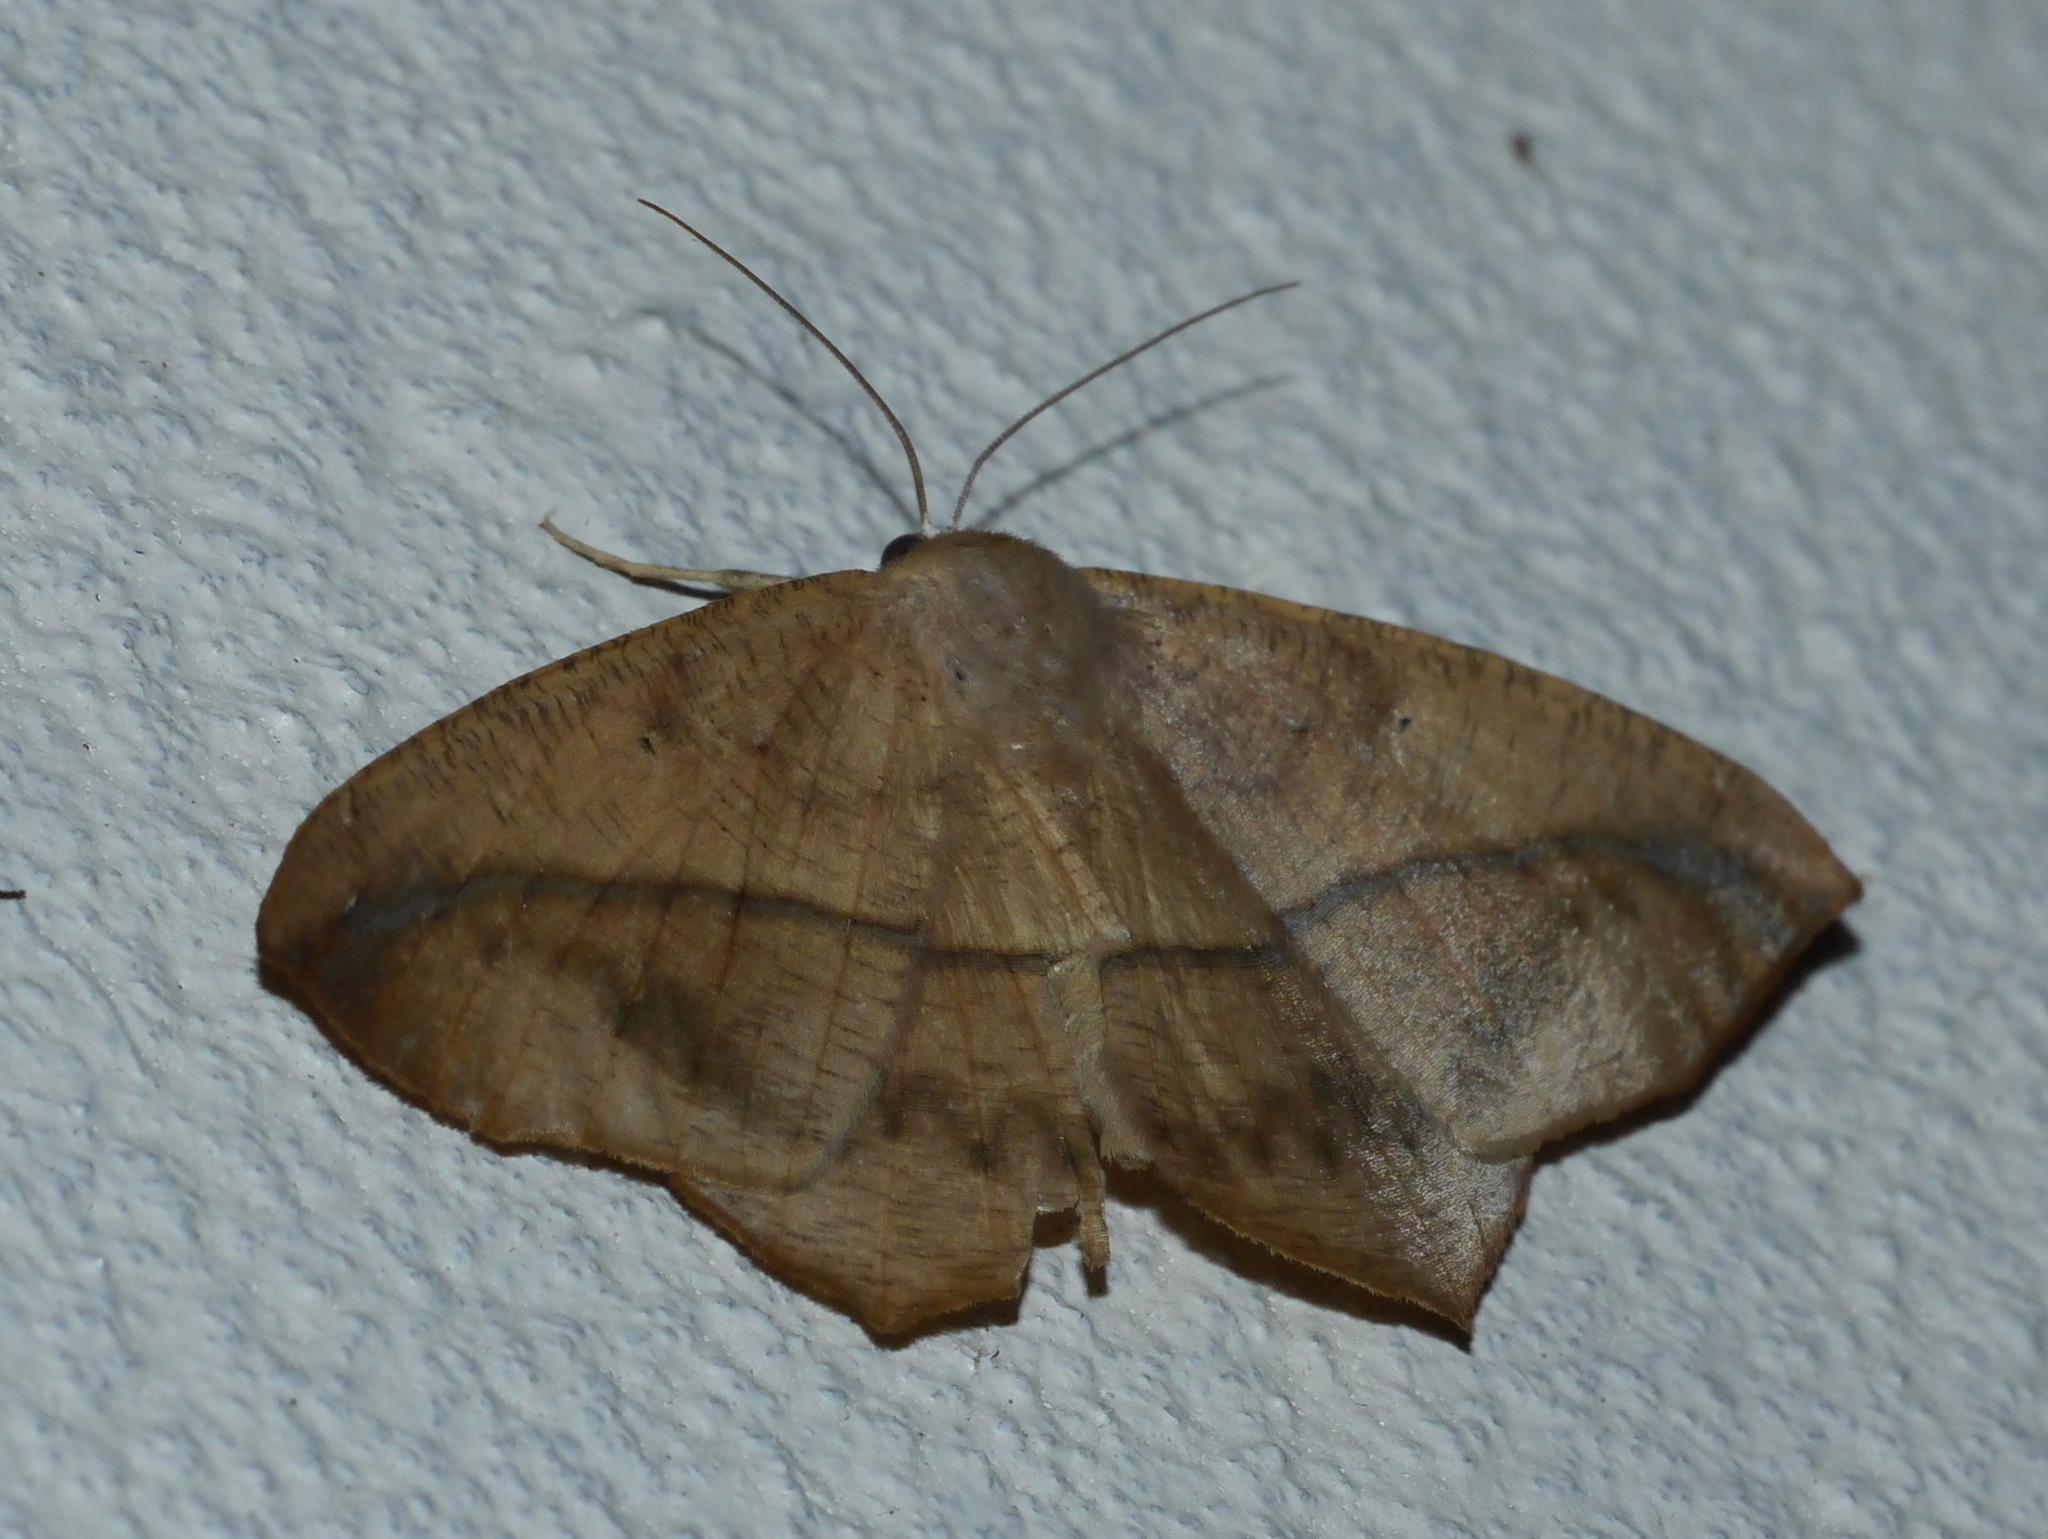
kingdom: Animalia
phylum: Arthropoda
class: Insecta
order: Lepidoptera
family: Geometridae
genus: Prochoerodes
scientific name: Prochoerodes lineola
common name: Large maple spanworm
